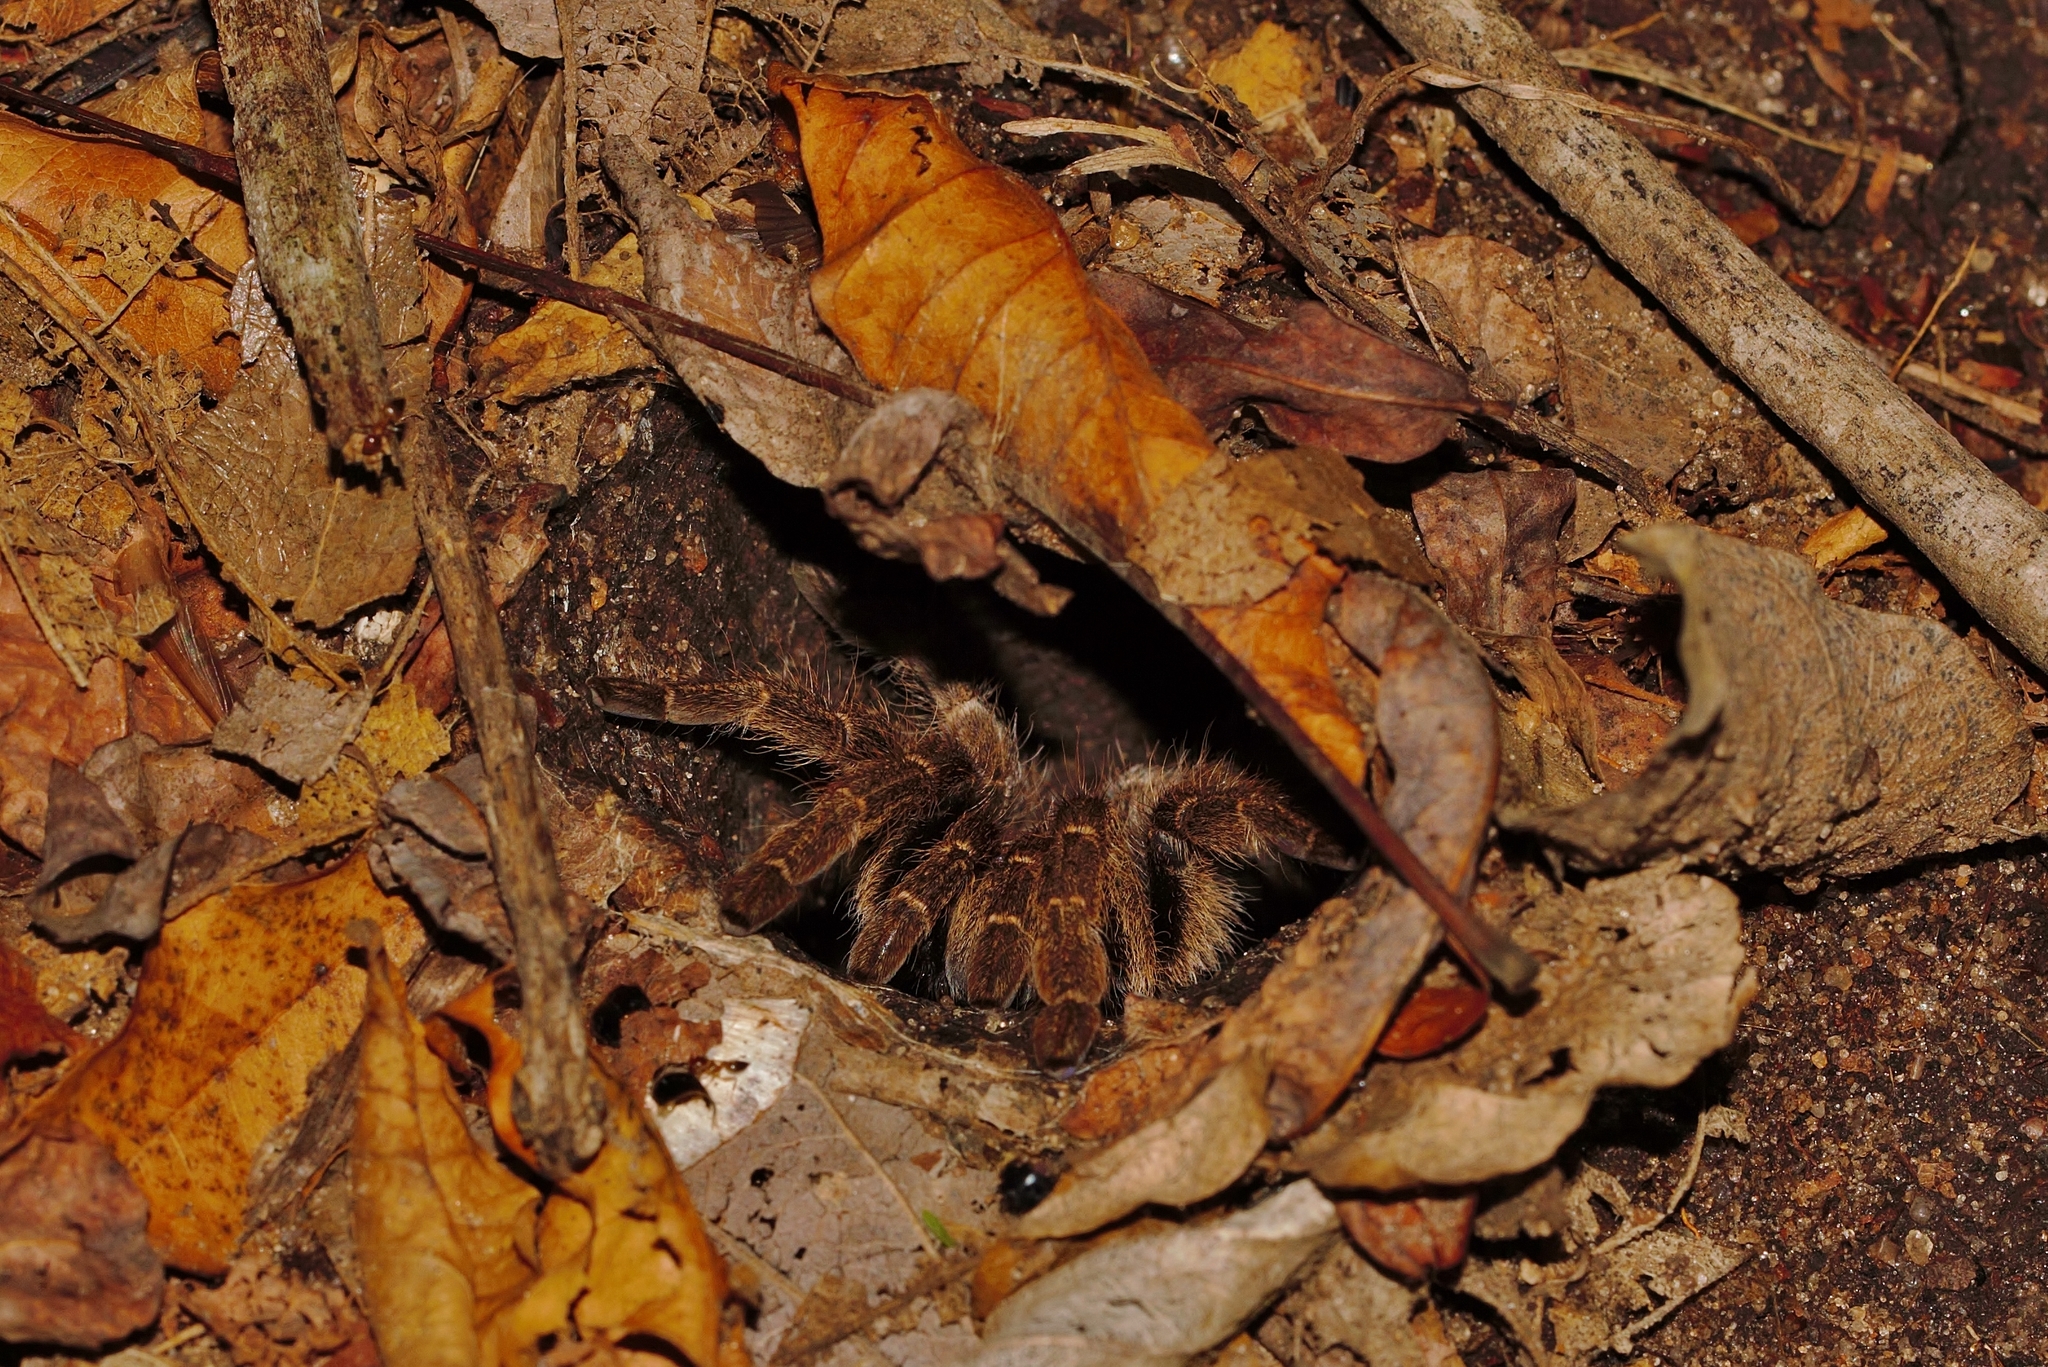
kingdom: Animalia
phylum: Arthropoda
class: Arachnida
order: Araneae
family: Theraphosidae
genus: Ceratogyrus
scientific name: Ceratogyrus meridionalis
